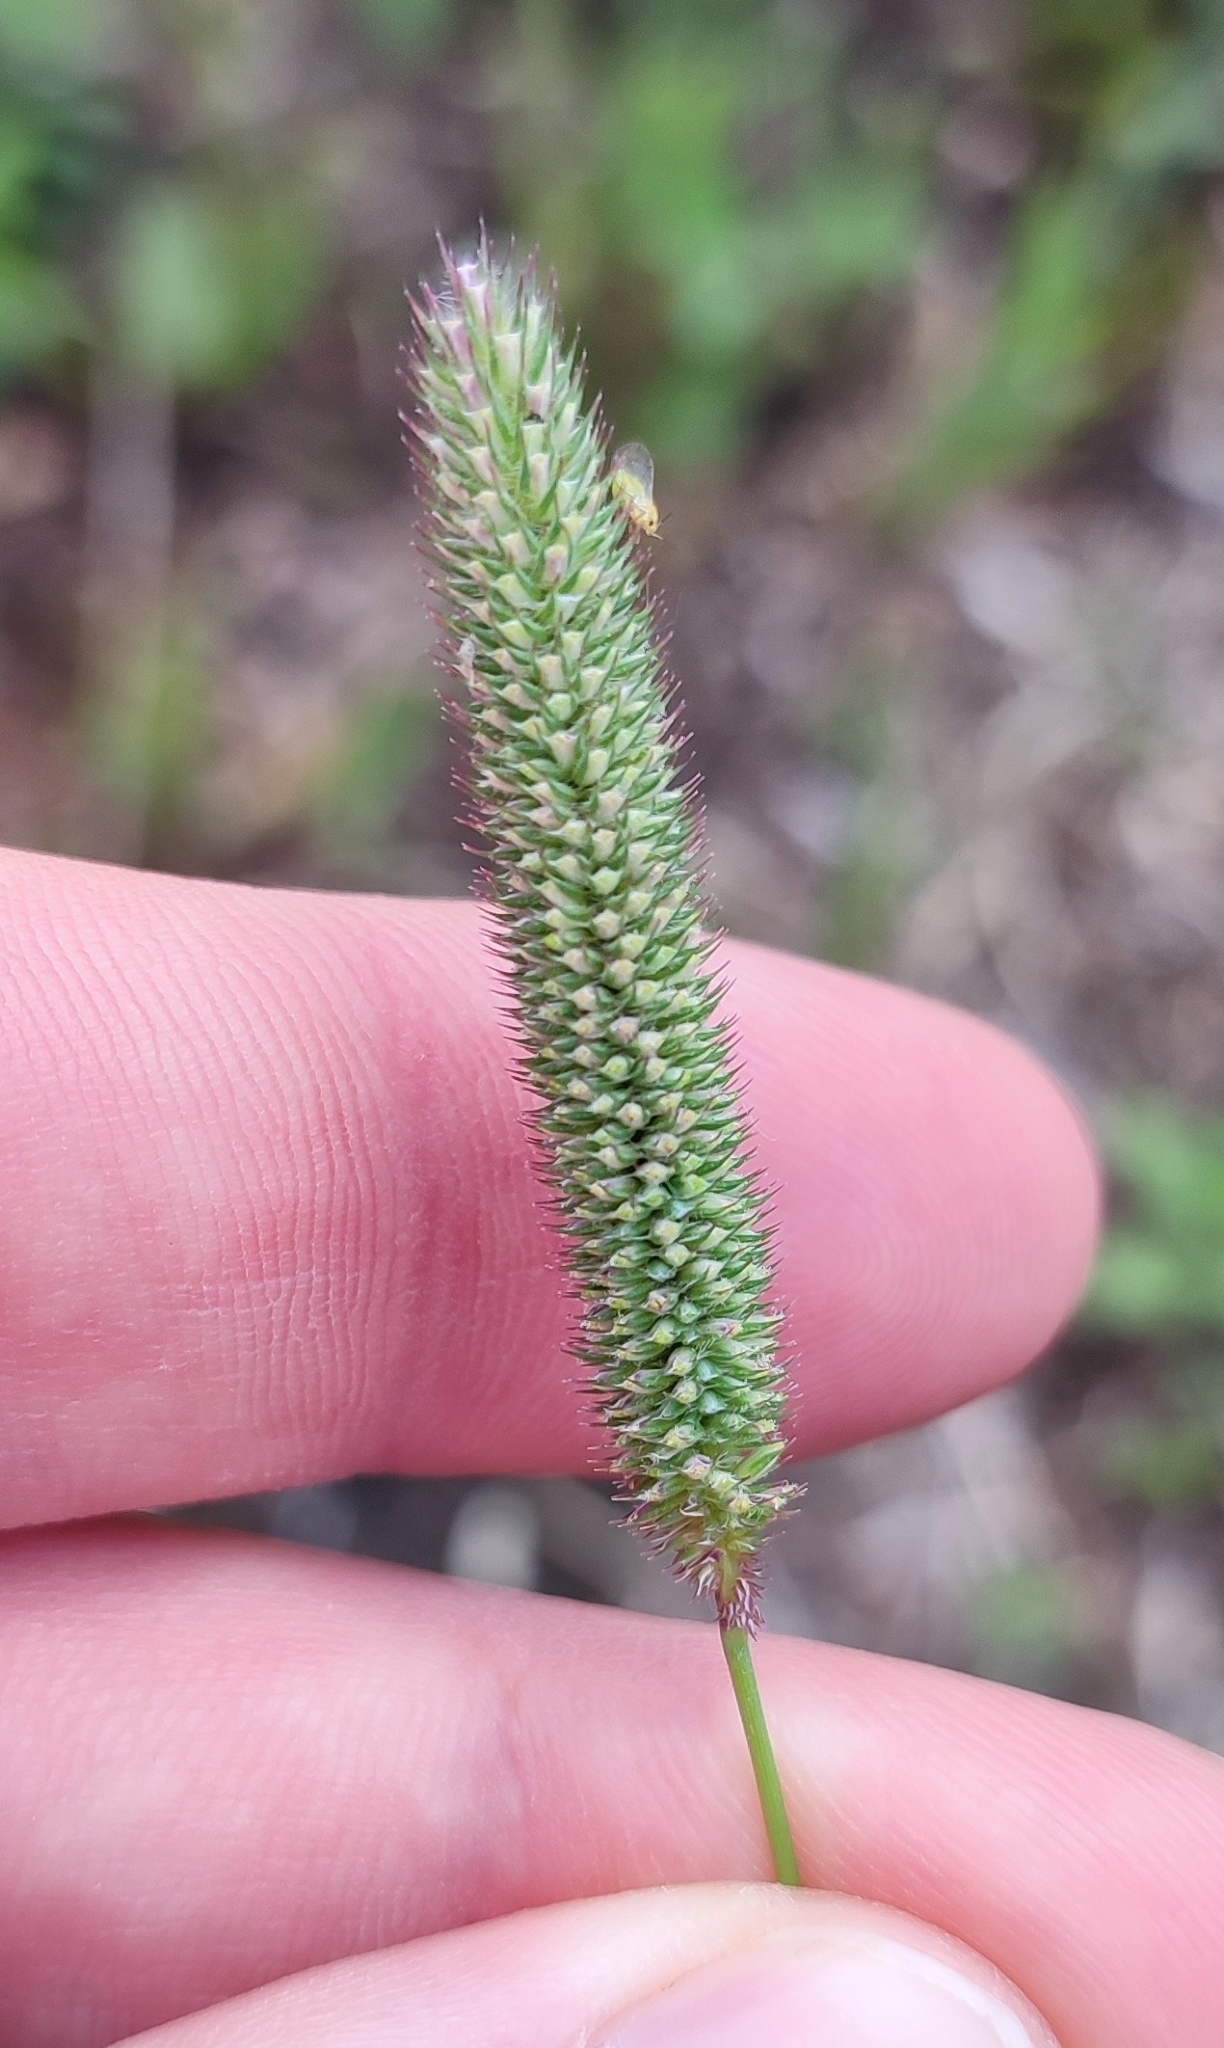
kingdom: Plantae
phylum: Tracheophyta
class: Liliopsida
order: Poales
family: Poaceae
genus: Phleum
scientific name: Phleum pratense
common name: Timothy grass
